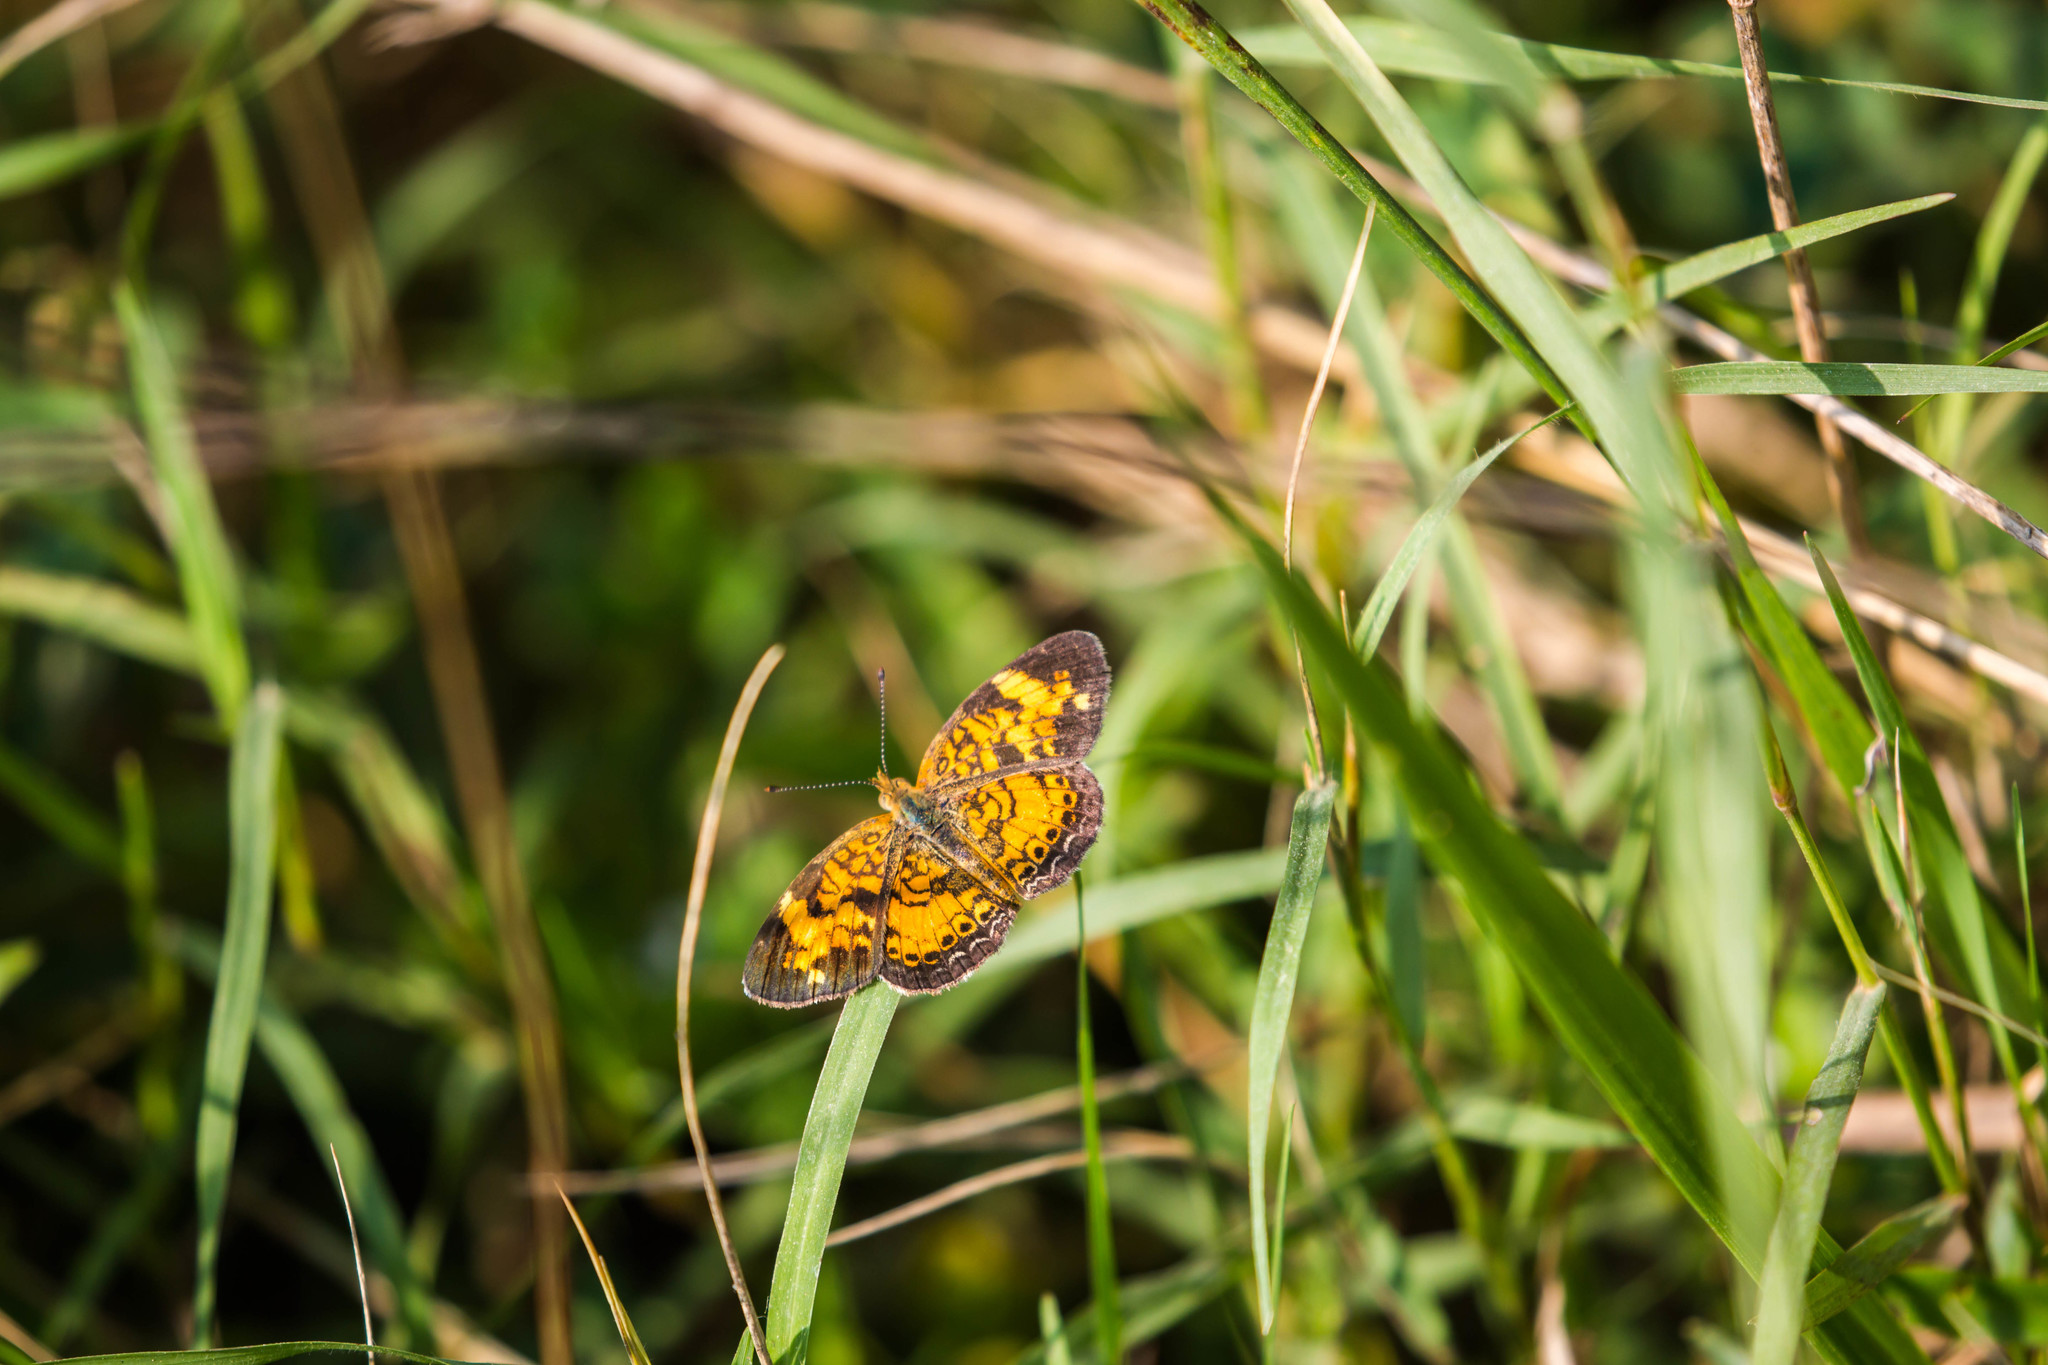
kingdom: Animalia
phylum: Arthropoda
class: Insecta
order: Lepidoptera
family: Nymphalidae
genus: Phyciodes
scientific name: Phyciodes tharos
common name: Pearl crescent
